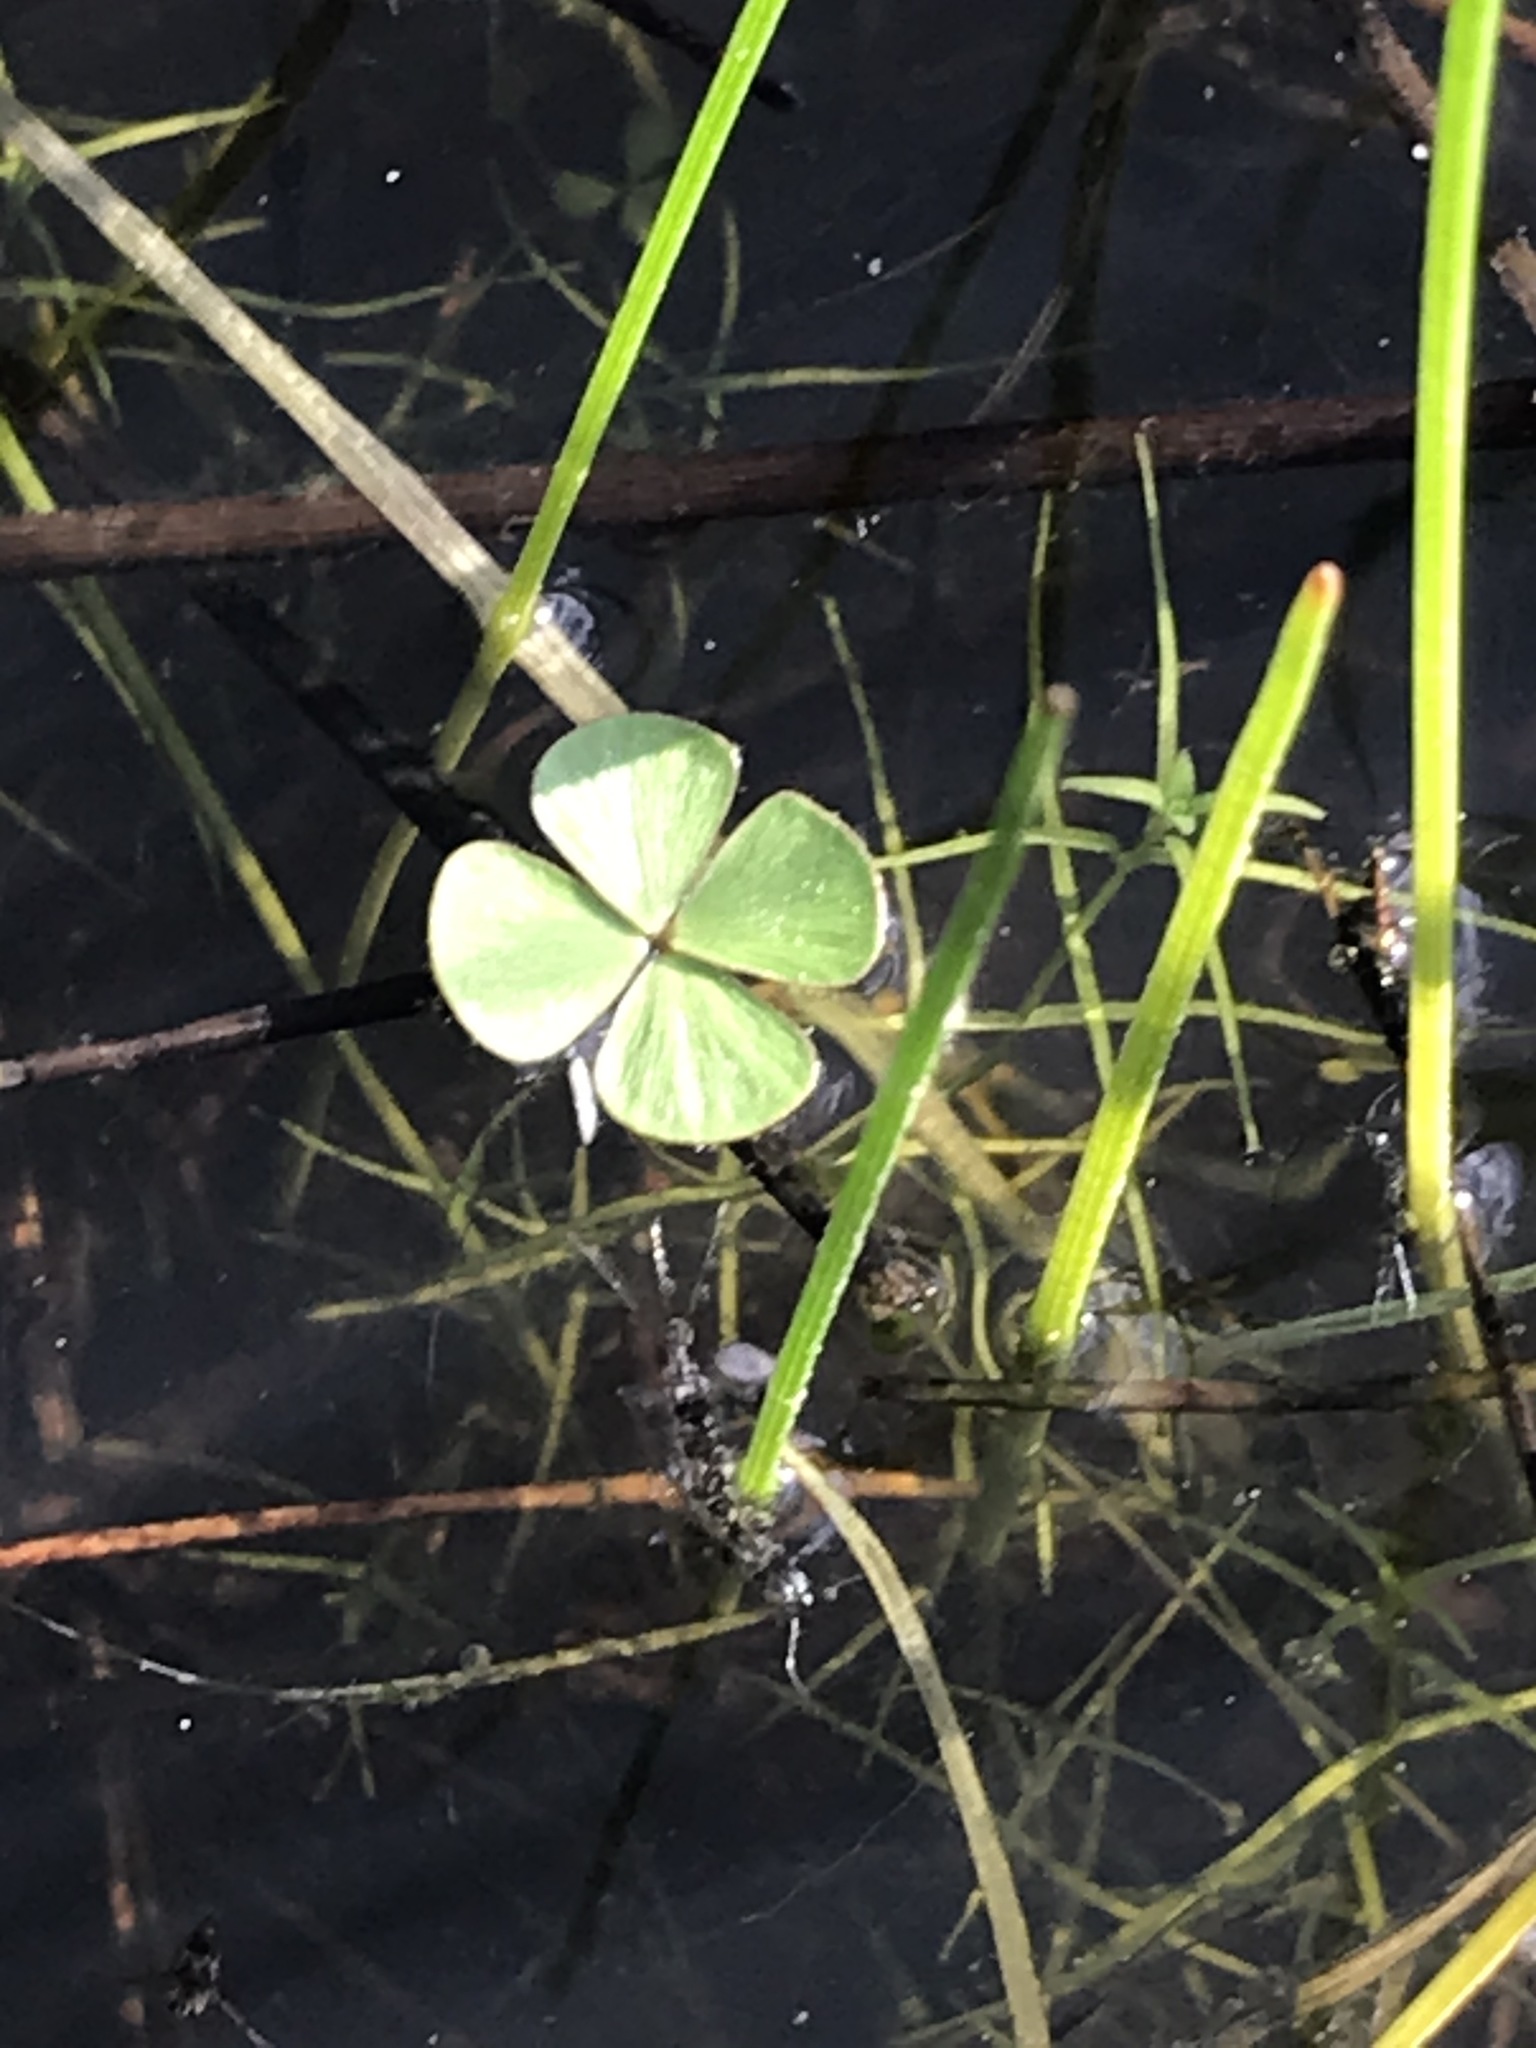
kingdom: Plantae
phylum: Tracheophyta
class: Polypodiopsida
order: Salviniales
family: Marsileaceae
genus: Marsilea
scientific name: Marsilea vestita
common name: Hooked-pepperwort
